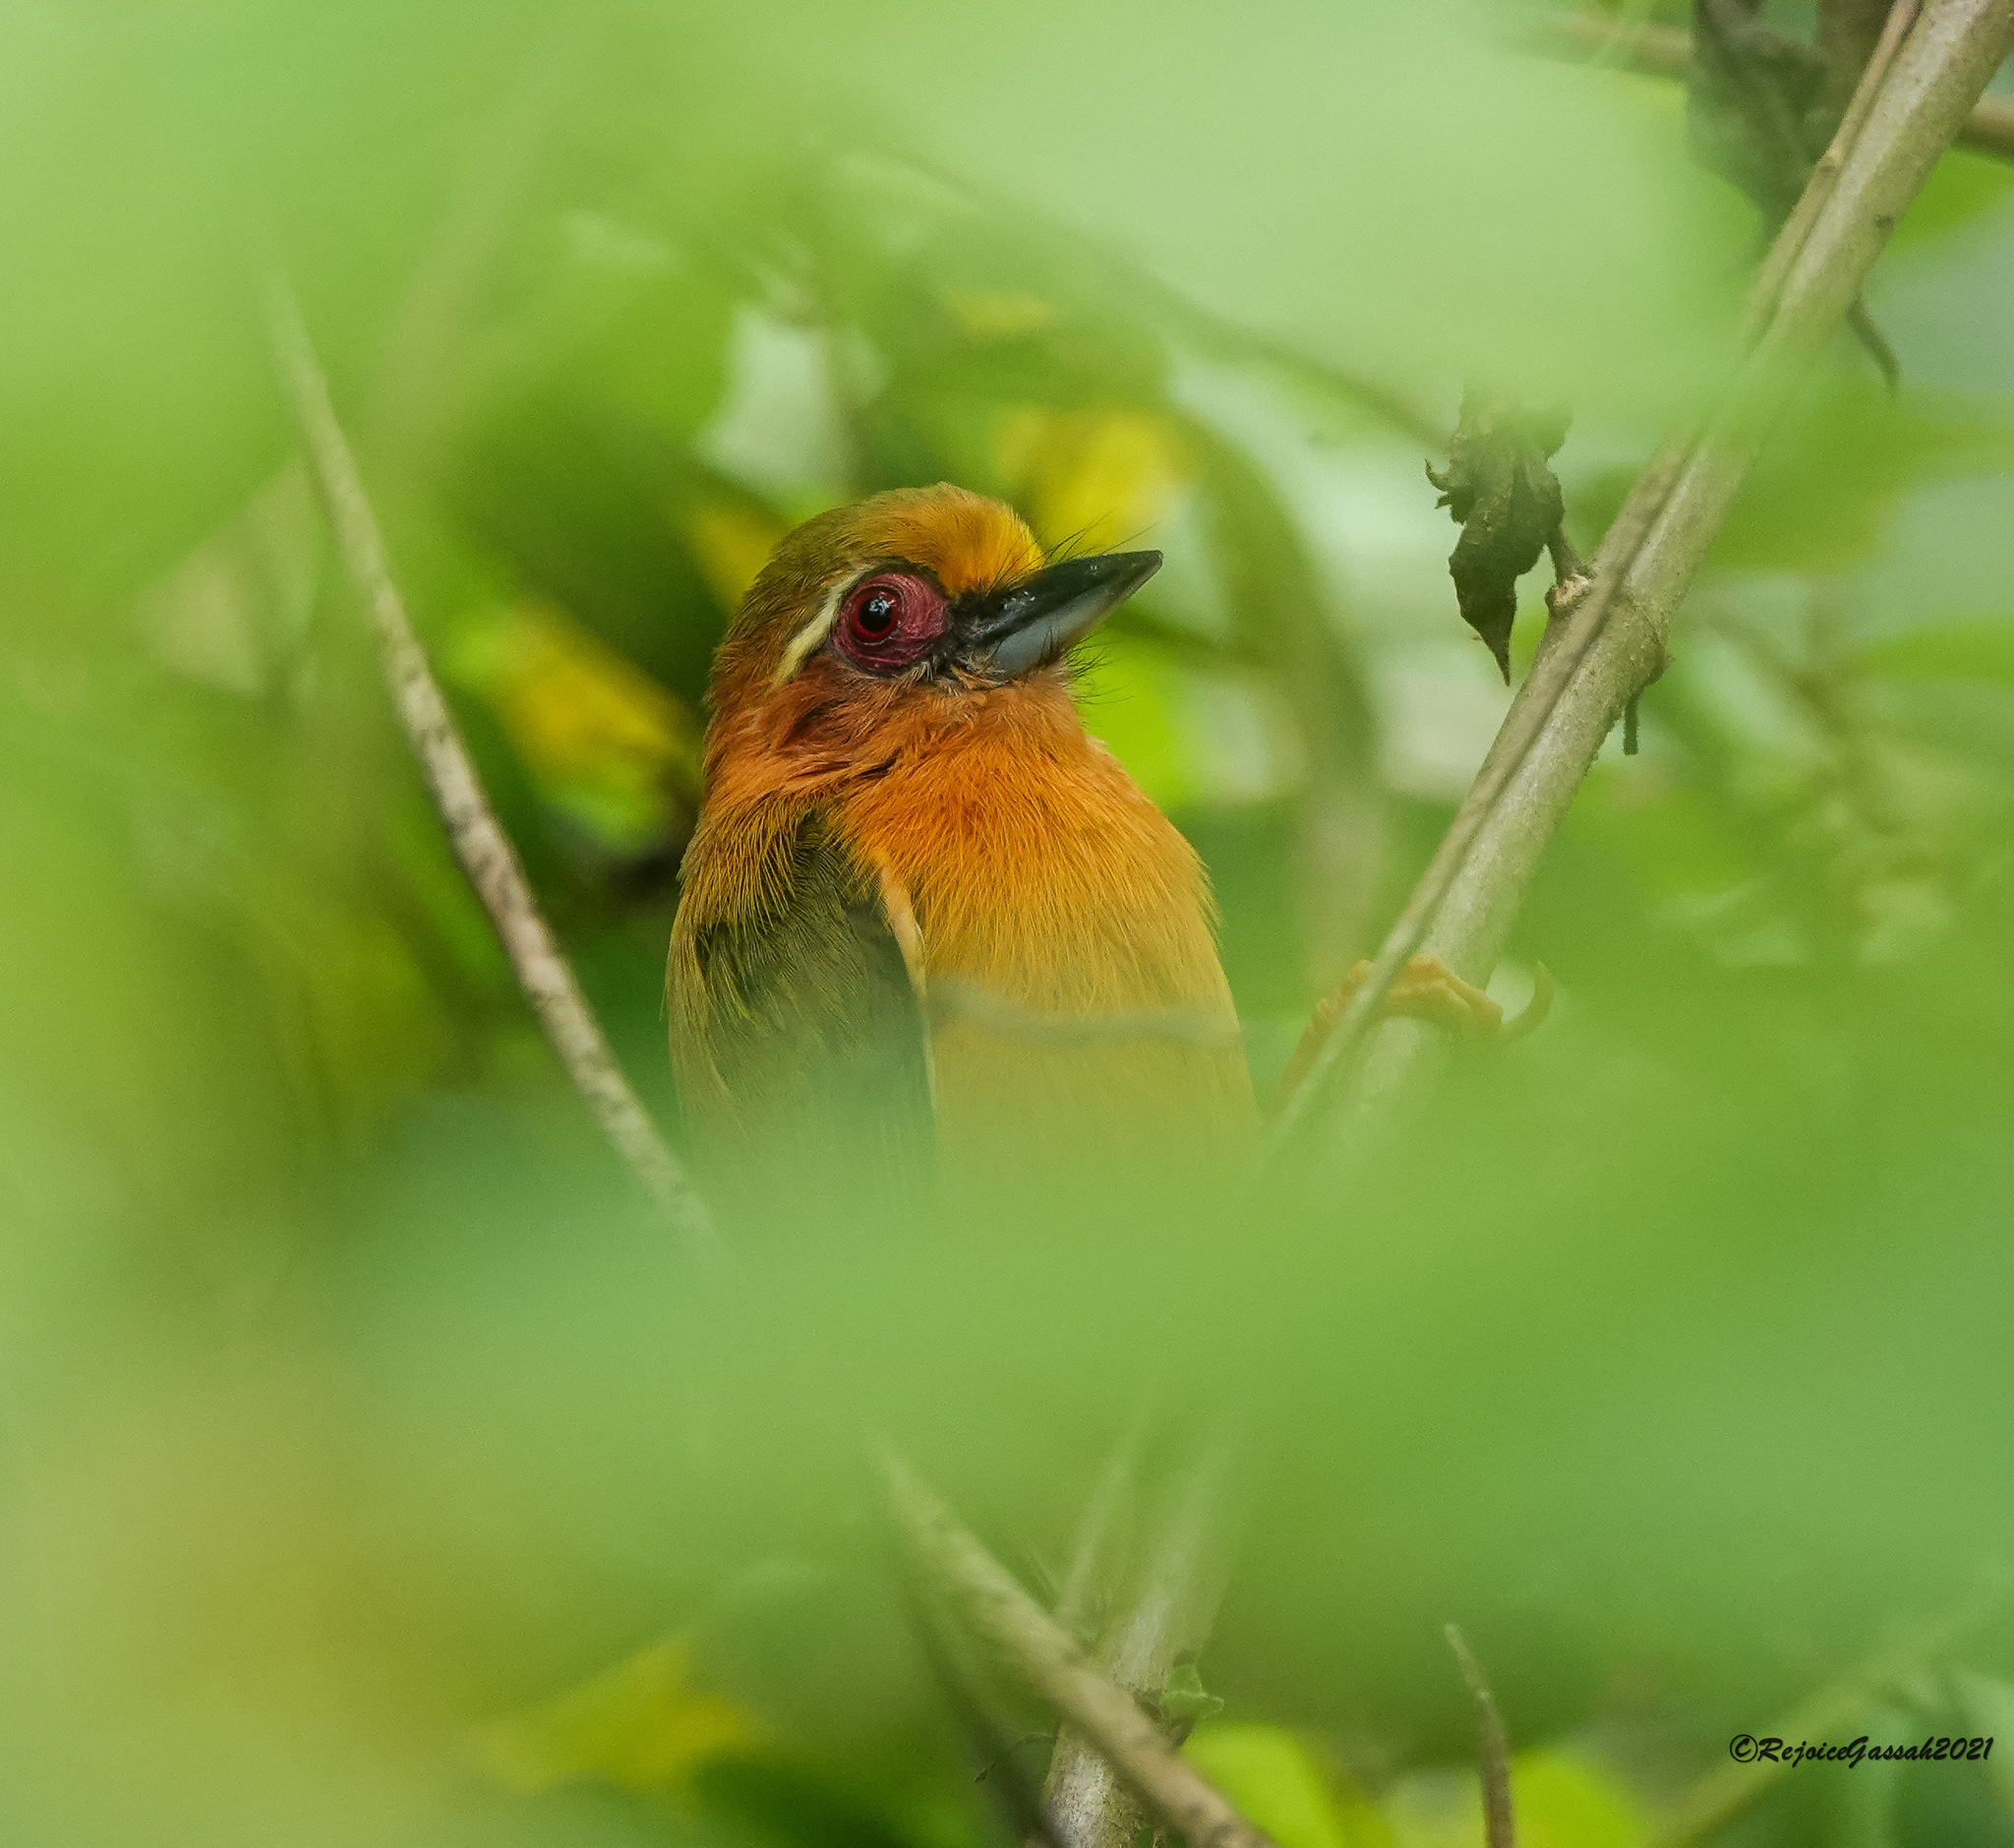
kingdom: Animalia
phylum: Chordata
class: Aves
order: Piciformes
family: Picidae
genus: Sasia
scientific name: Sasia ochracea
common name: White-browed piculet
